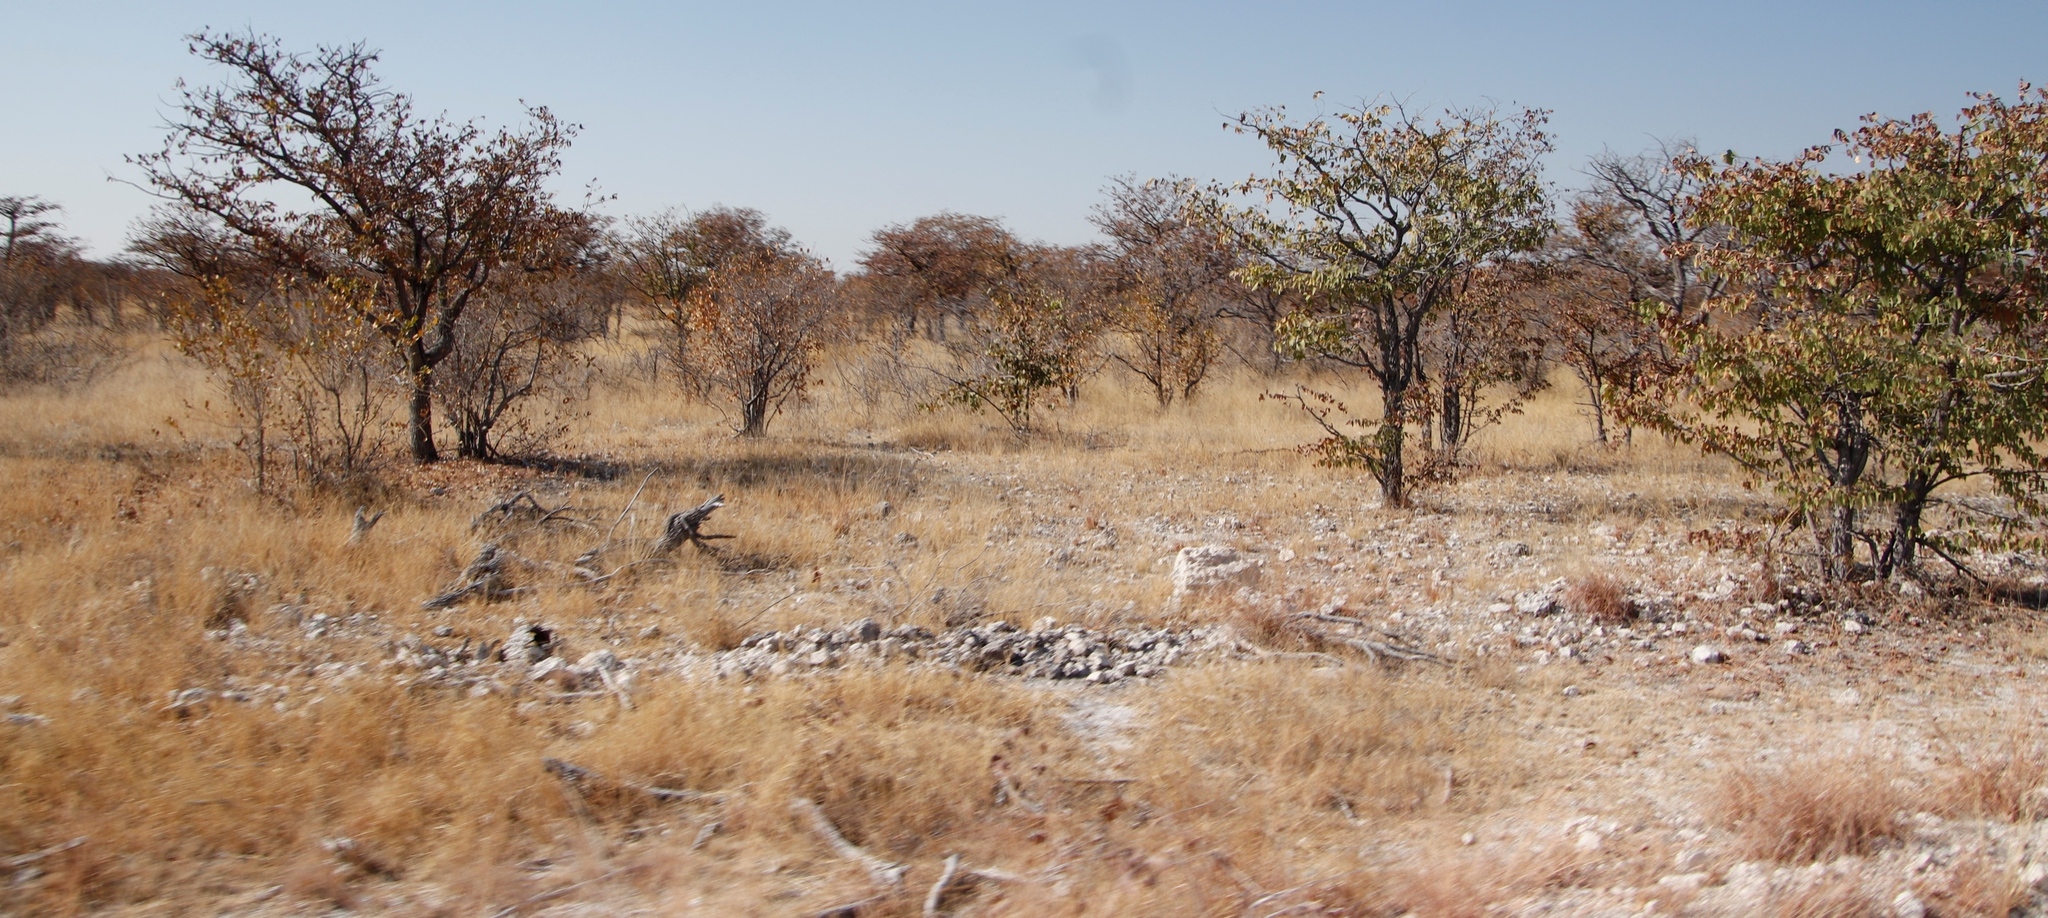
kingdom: Plantae
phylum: Tracheophyta
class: Magnoliopsida
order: Fabales
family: Fabaceae
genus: Colophospermum
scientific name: Colophospermum mopane
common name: Mopane
